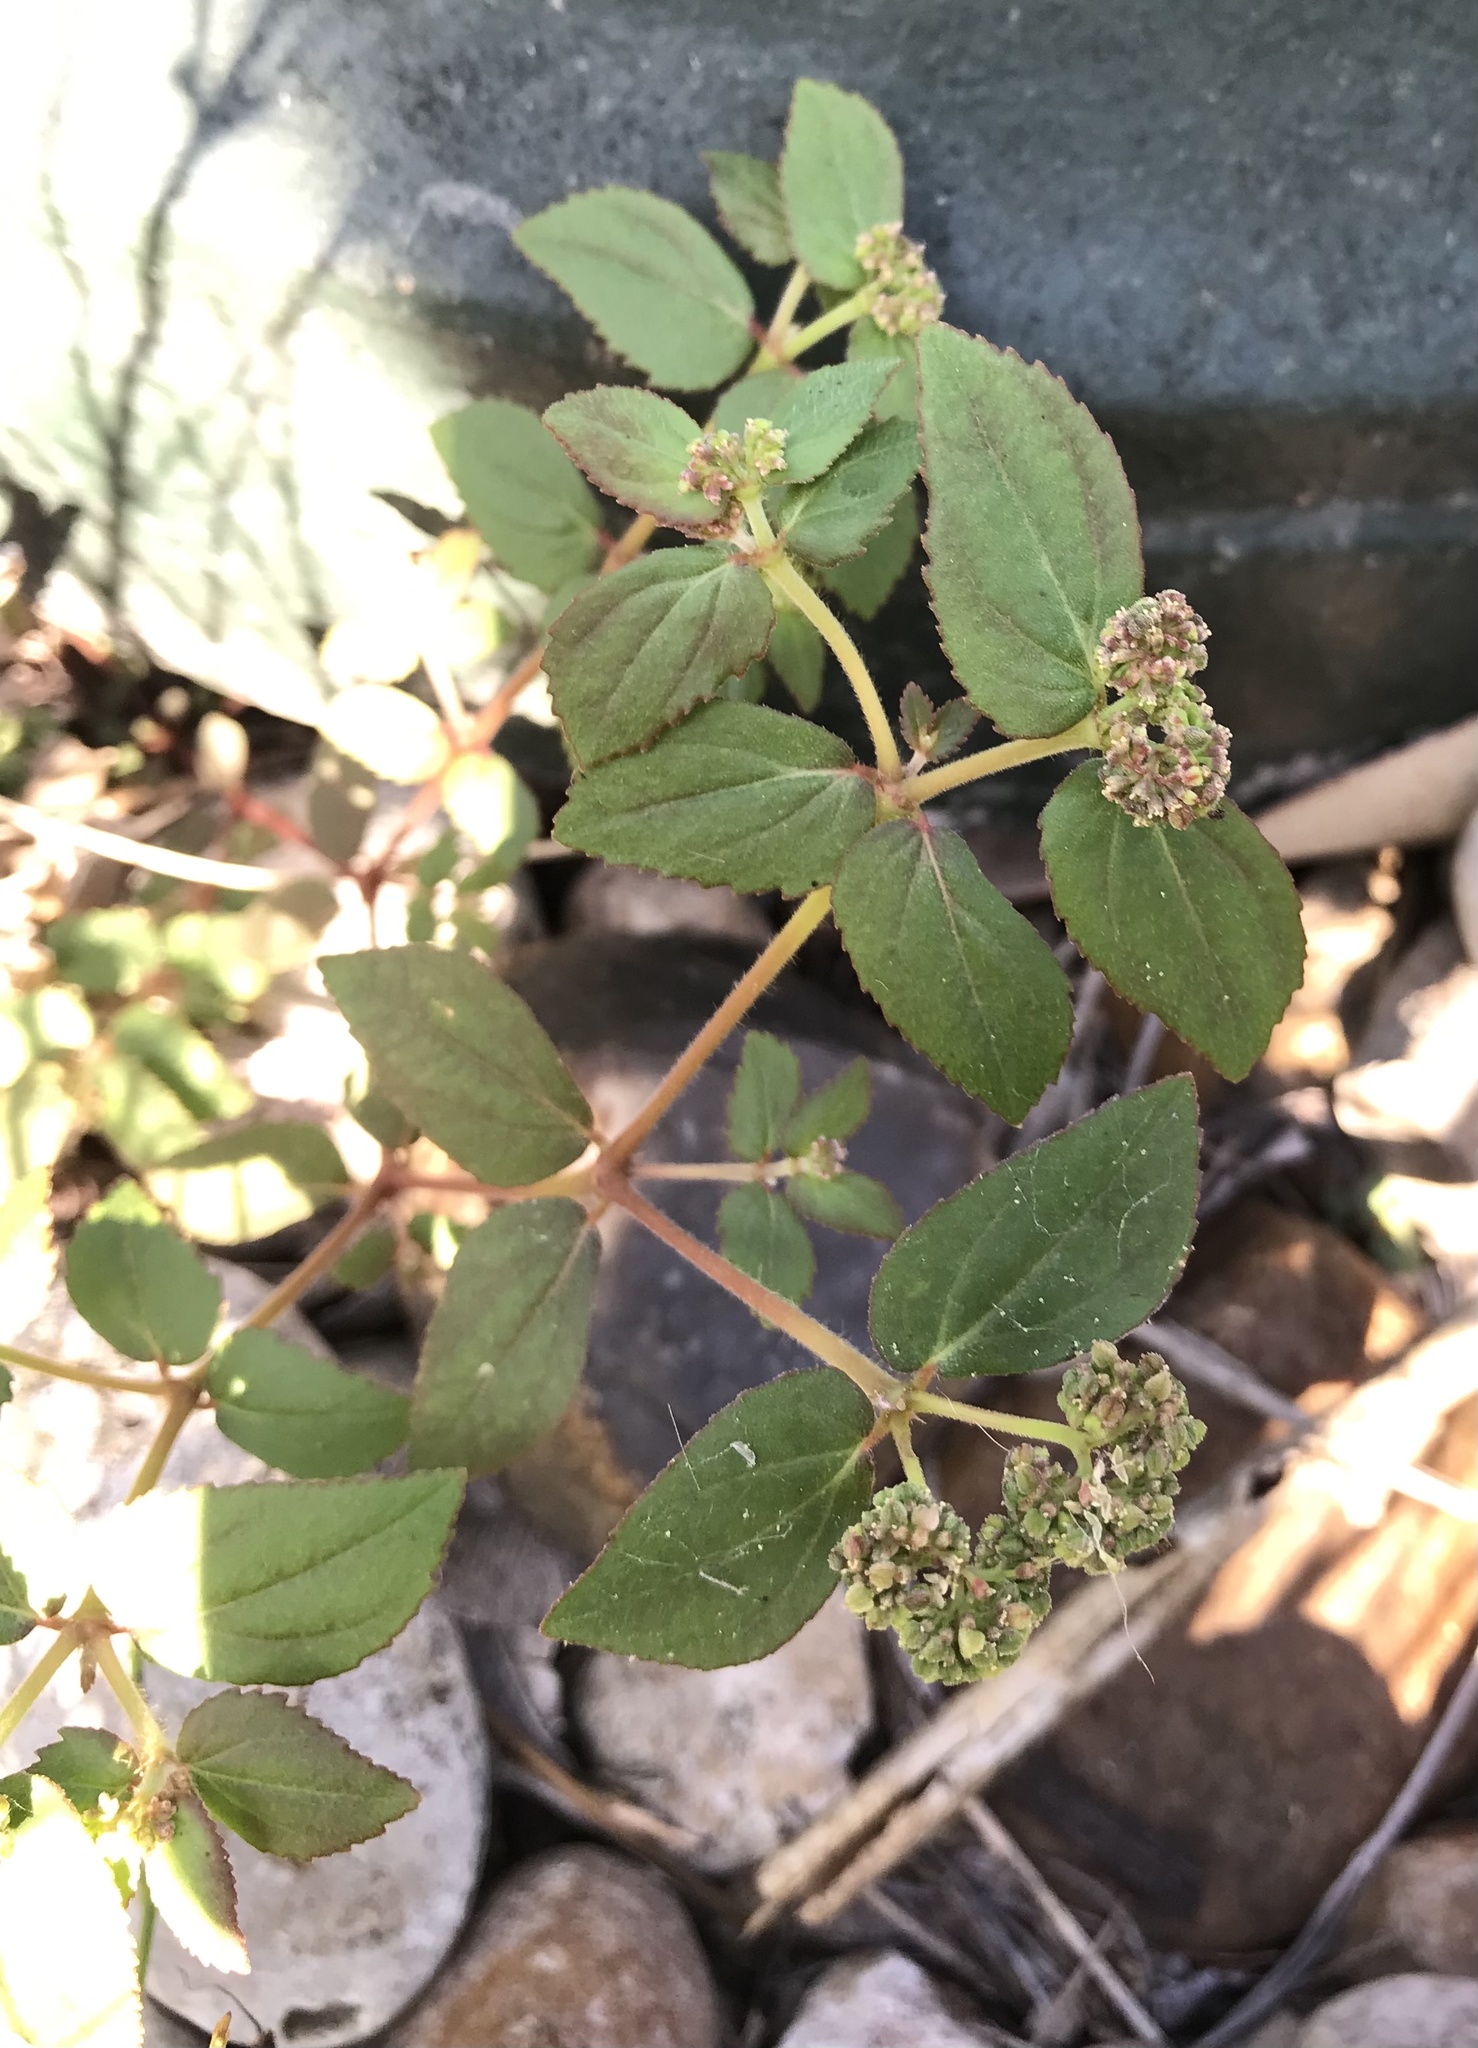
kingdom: Plantae
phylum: Tracheophyta
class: Magnoliopsida
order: Malpighiales
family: Euphorbiaceae
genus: Euphorbia
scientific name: Euphorbia ophthalmica
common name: Florida hammock sandmat
